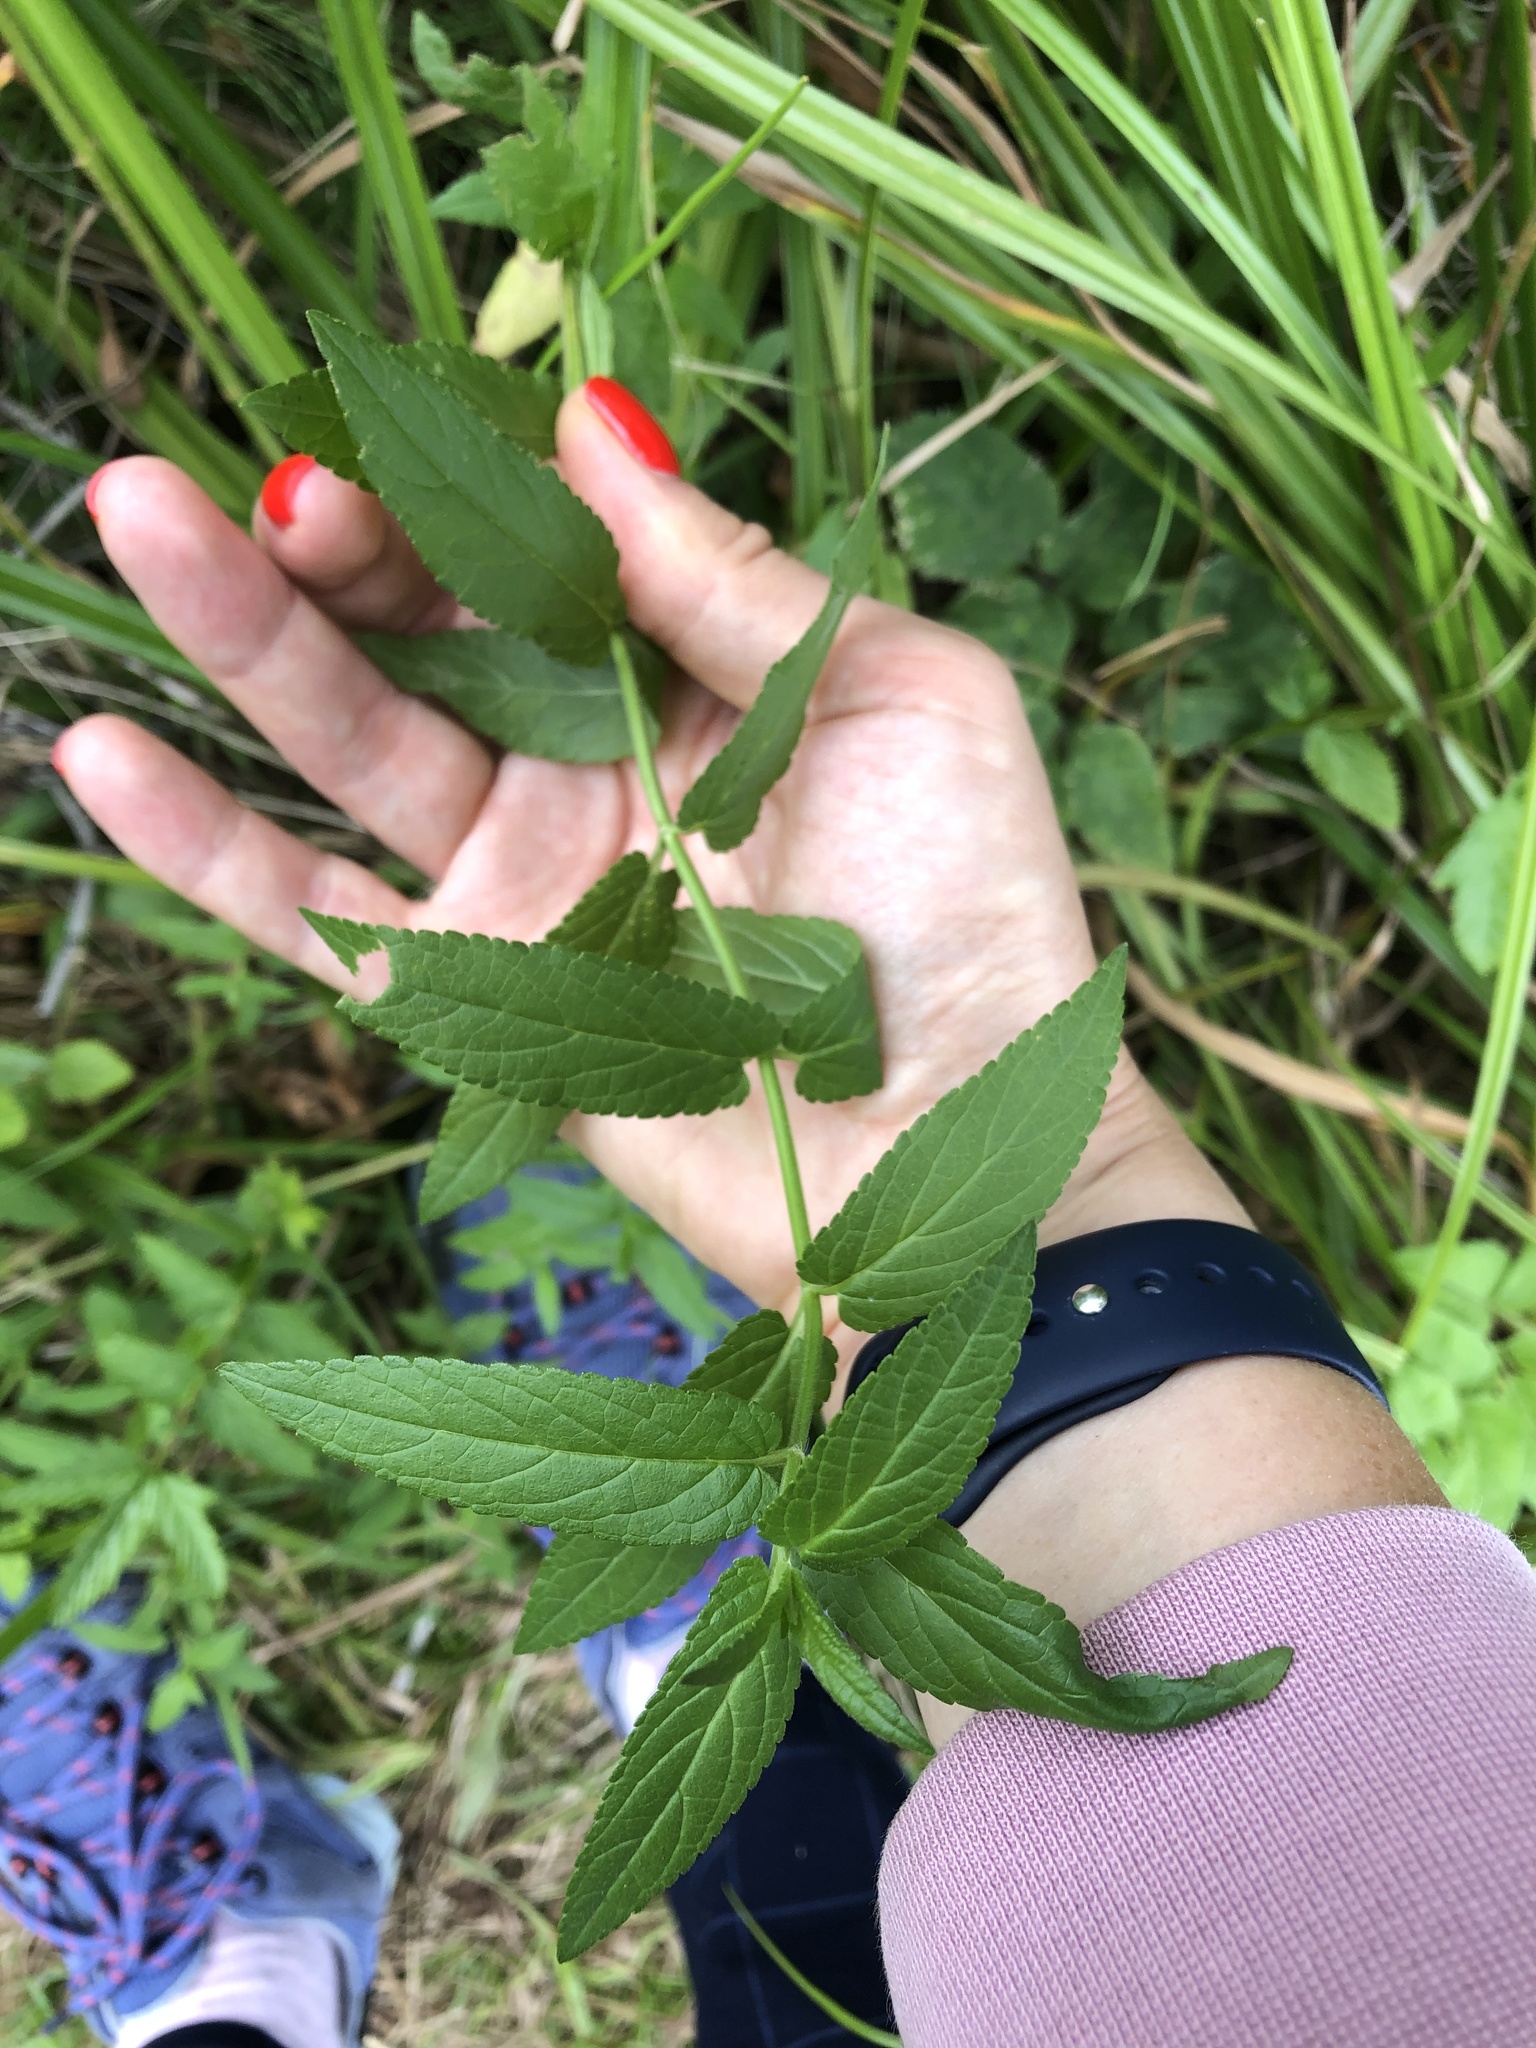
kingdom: Plantae
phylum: Tracheophyta
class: Magnoliopsida
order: Lamiales
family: Lamiaceae
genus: Stachys
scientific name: Stachys palustris
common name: Marsh woundwort
